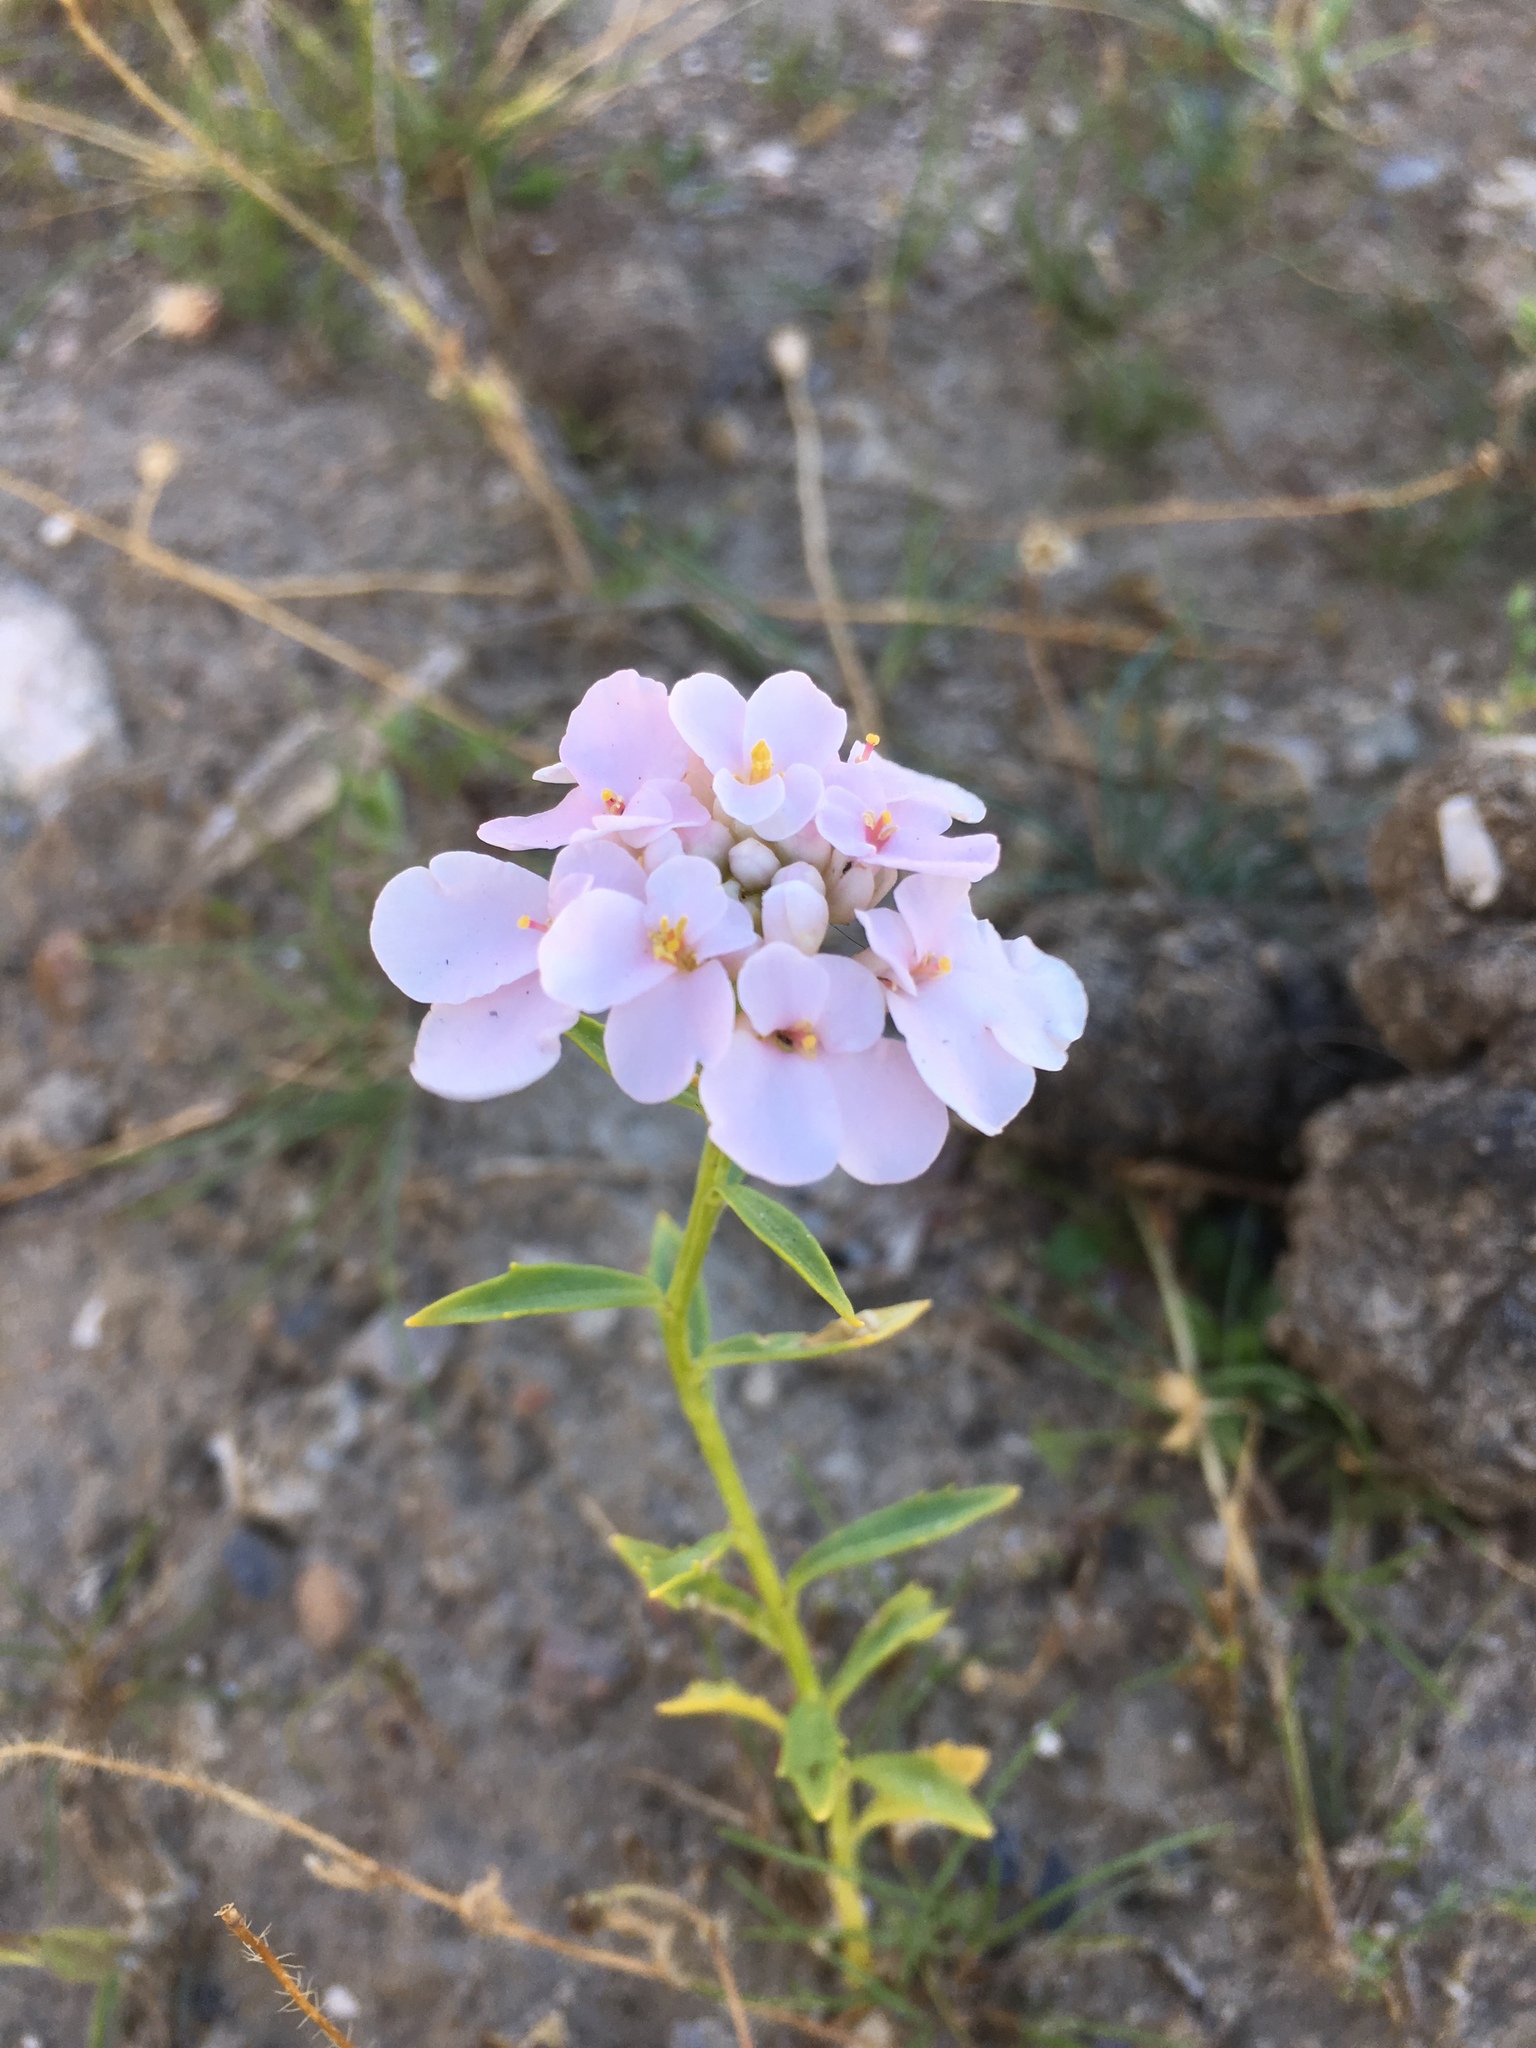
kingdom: Plantae
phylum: Tracheophyta
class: Magnoliopsida
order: Brassicales
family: Brassicaceae
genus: Cakile
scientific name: Cakile maritima
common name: Sea rocket
